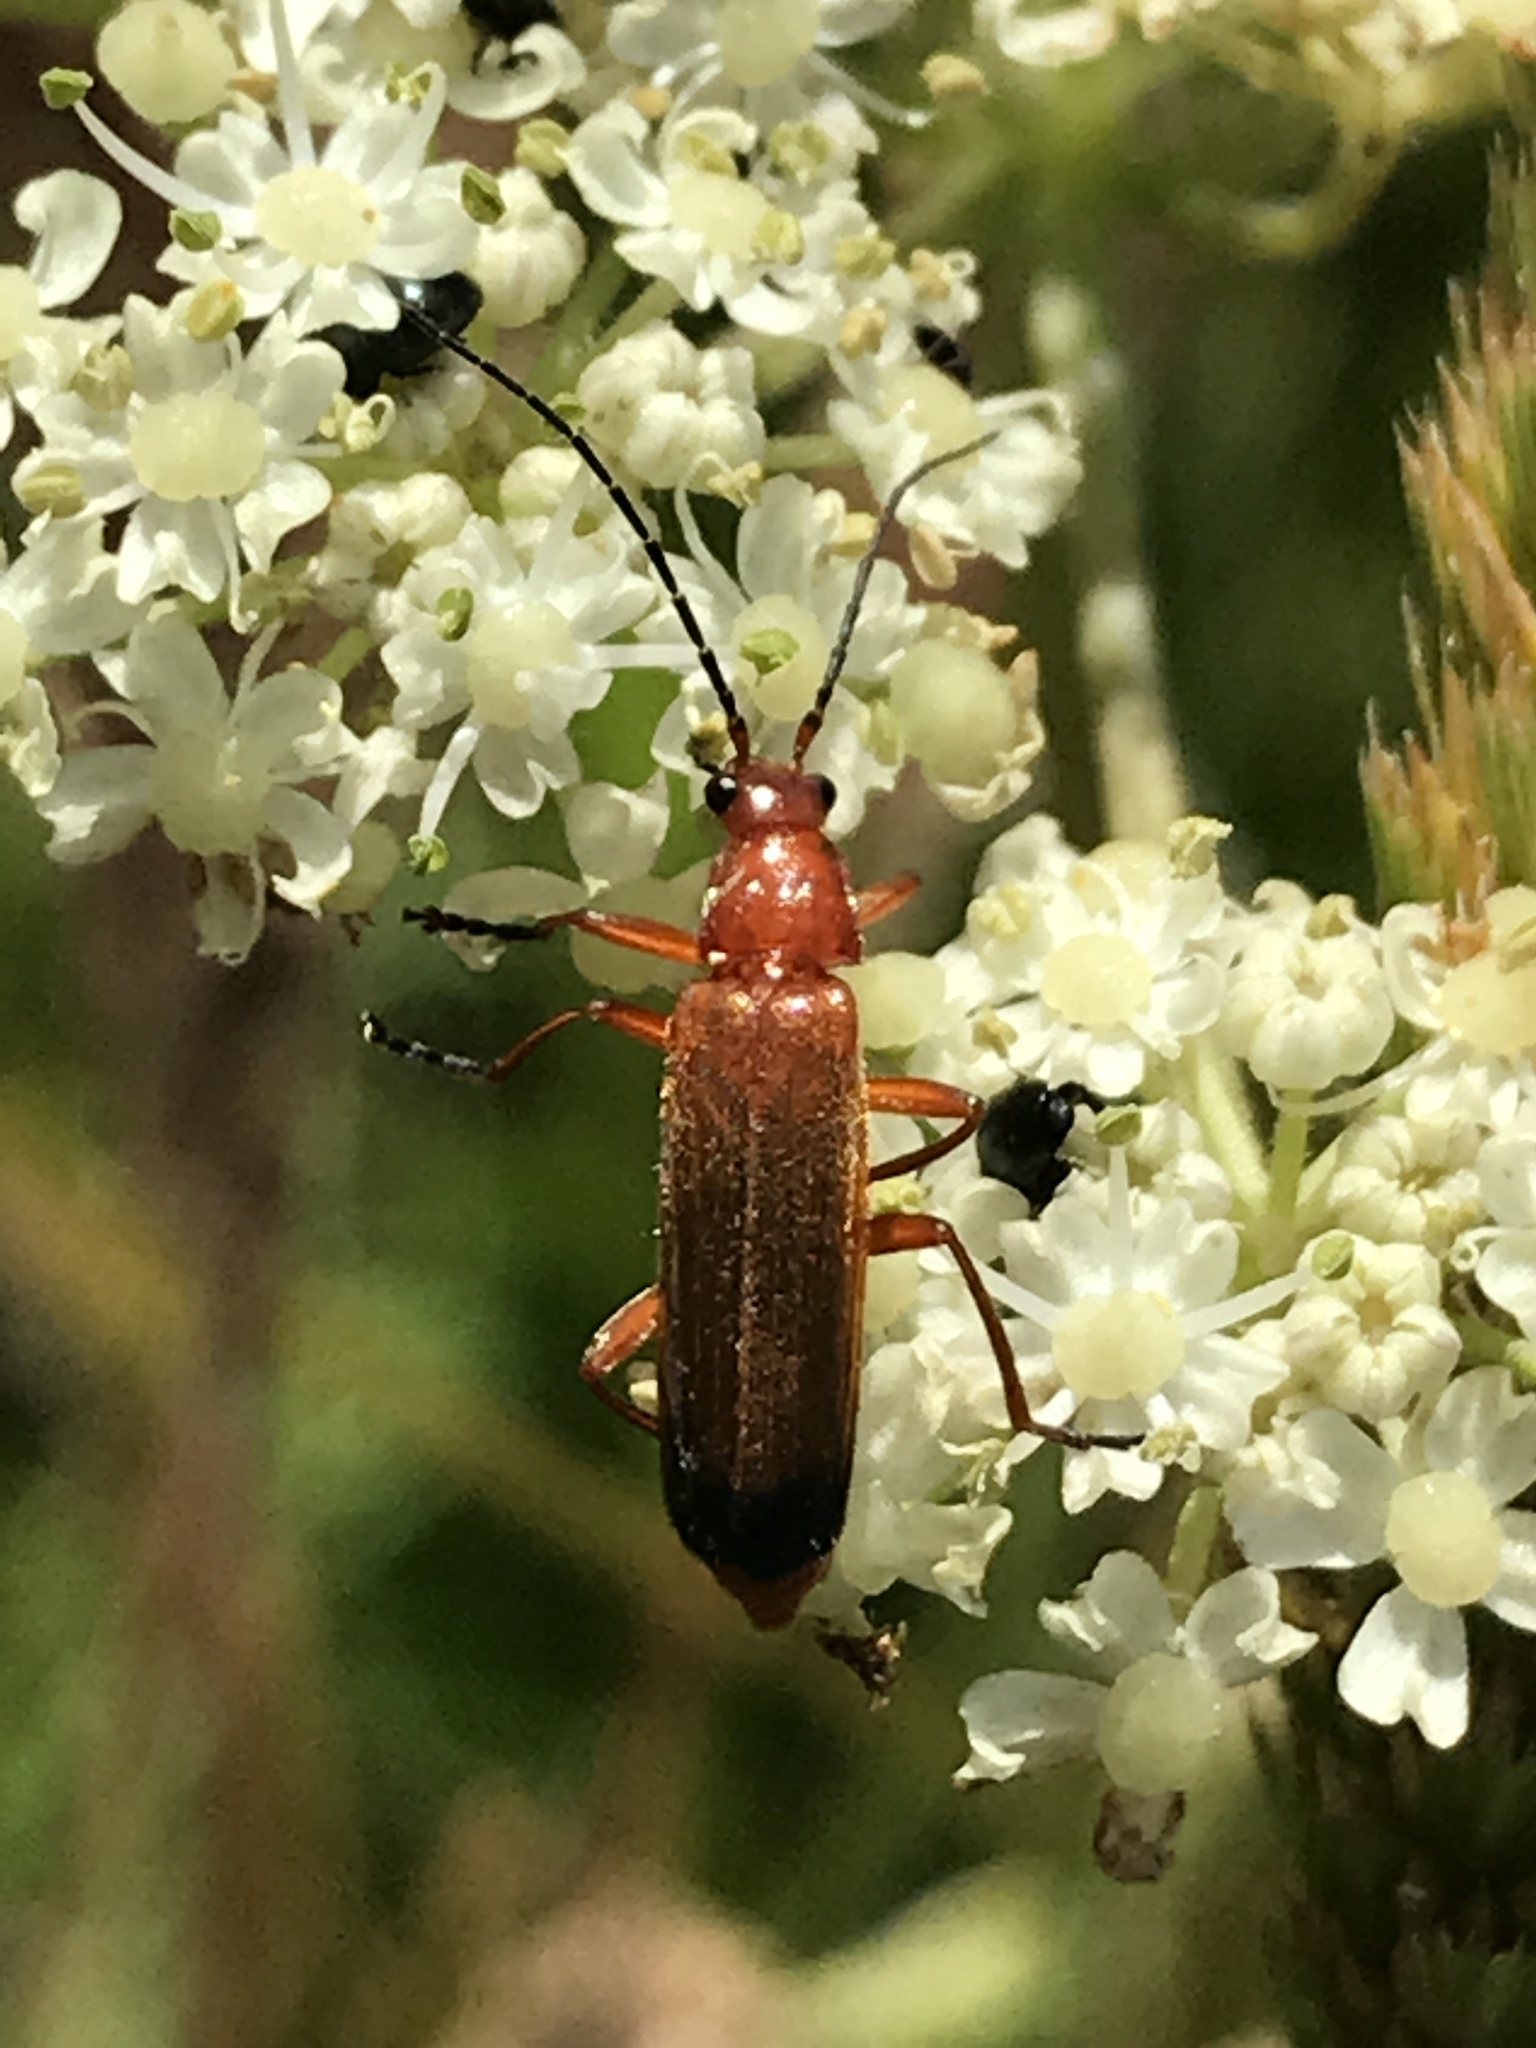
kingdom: Animalia
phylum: Arthropoda
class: Insecta
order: Coleoptera
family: Cantharidae
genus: Rhagonycha
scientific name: Rhagonycha fulva
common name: Common red soldier beetle
